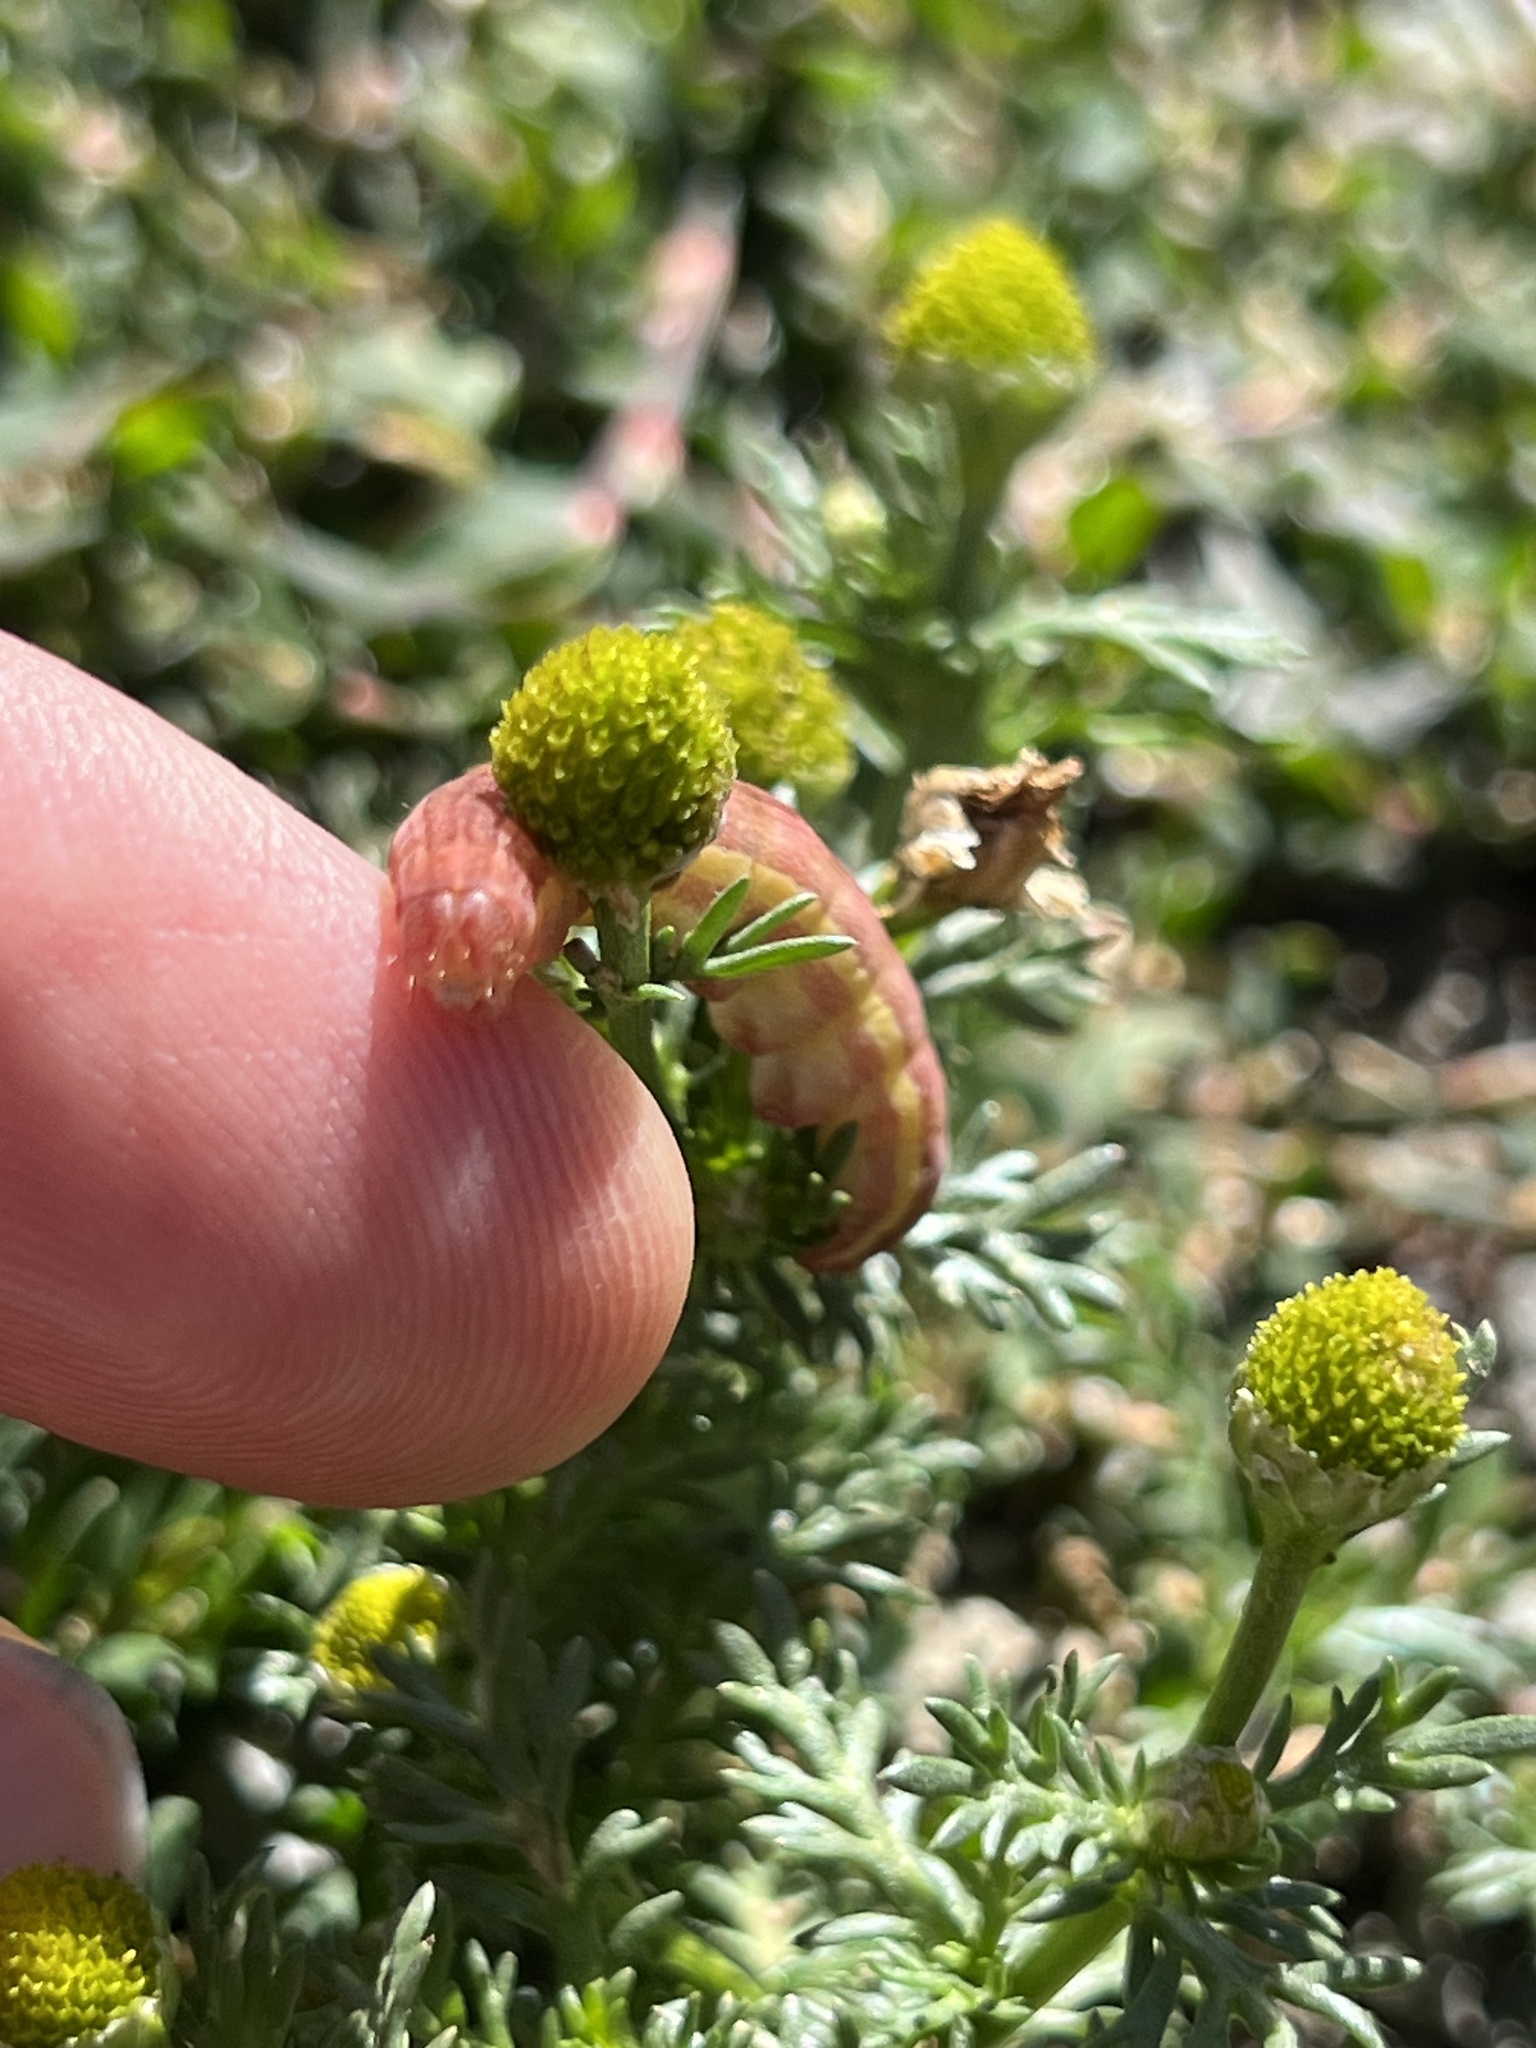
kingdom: Plantae
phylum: Tracheophyta
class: Magnoliopsida
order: Asterales
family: Asteraceae
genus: Matricaria
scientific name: Matricaria discoidea
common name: Disc mayweed
